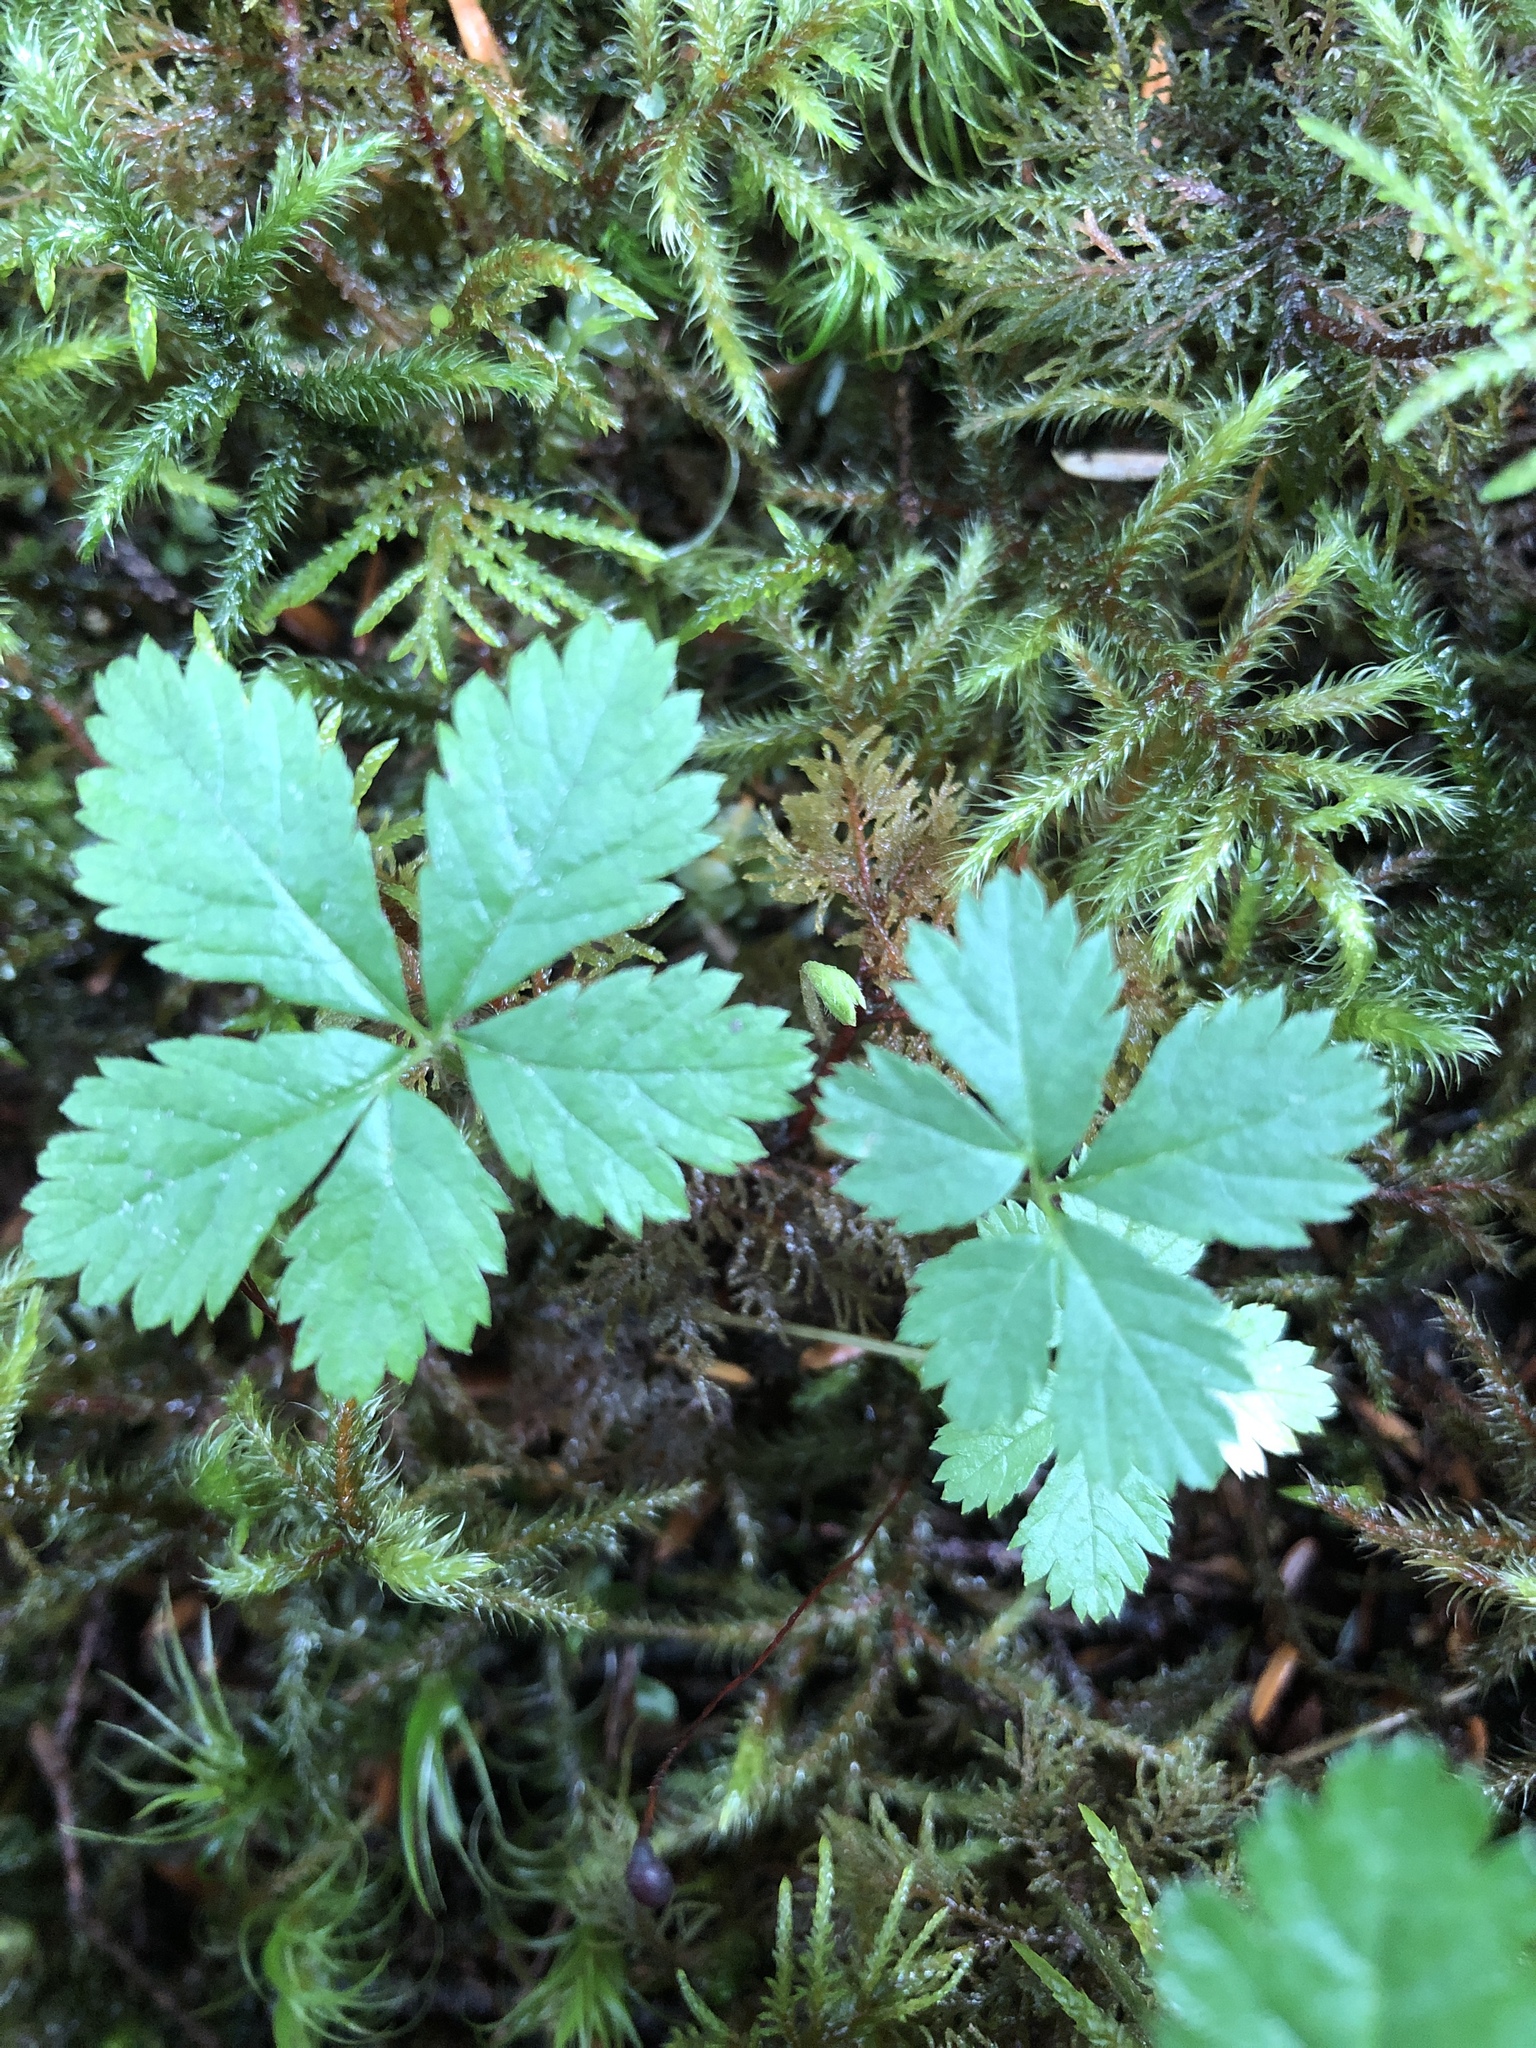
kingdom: Plantae
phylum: Tracheophyta
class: Magnoliopsida
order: Rosales
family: Rosaceae
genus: Rubus
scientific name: Rubus pedatus
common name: Creeping raspberry
